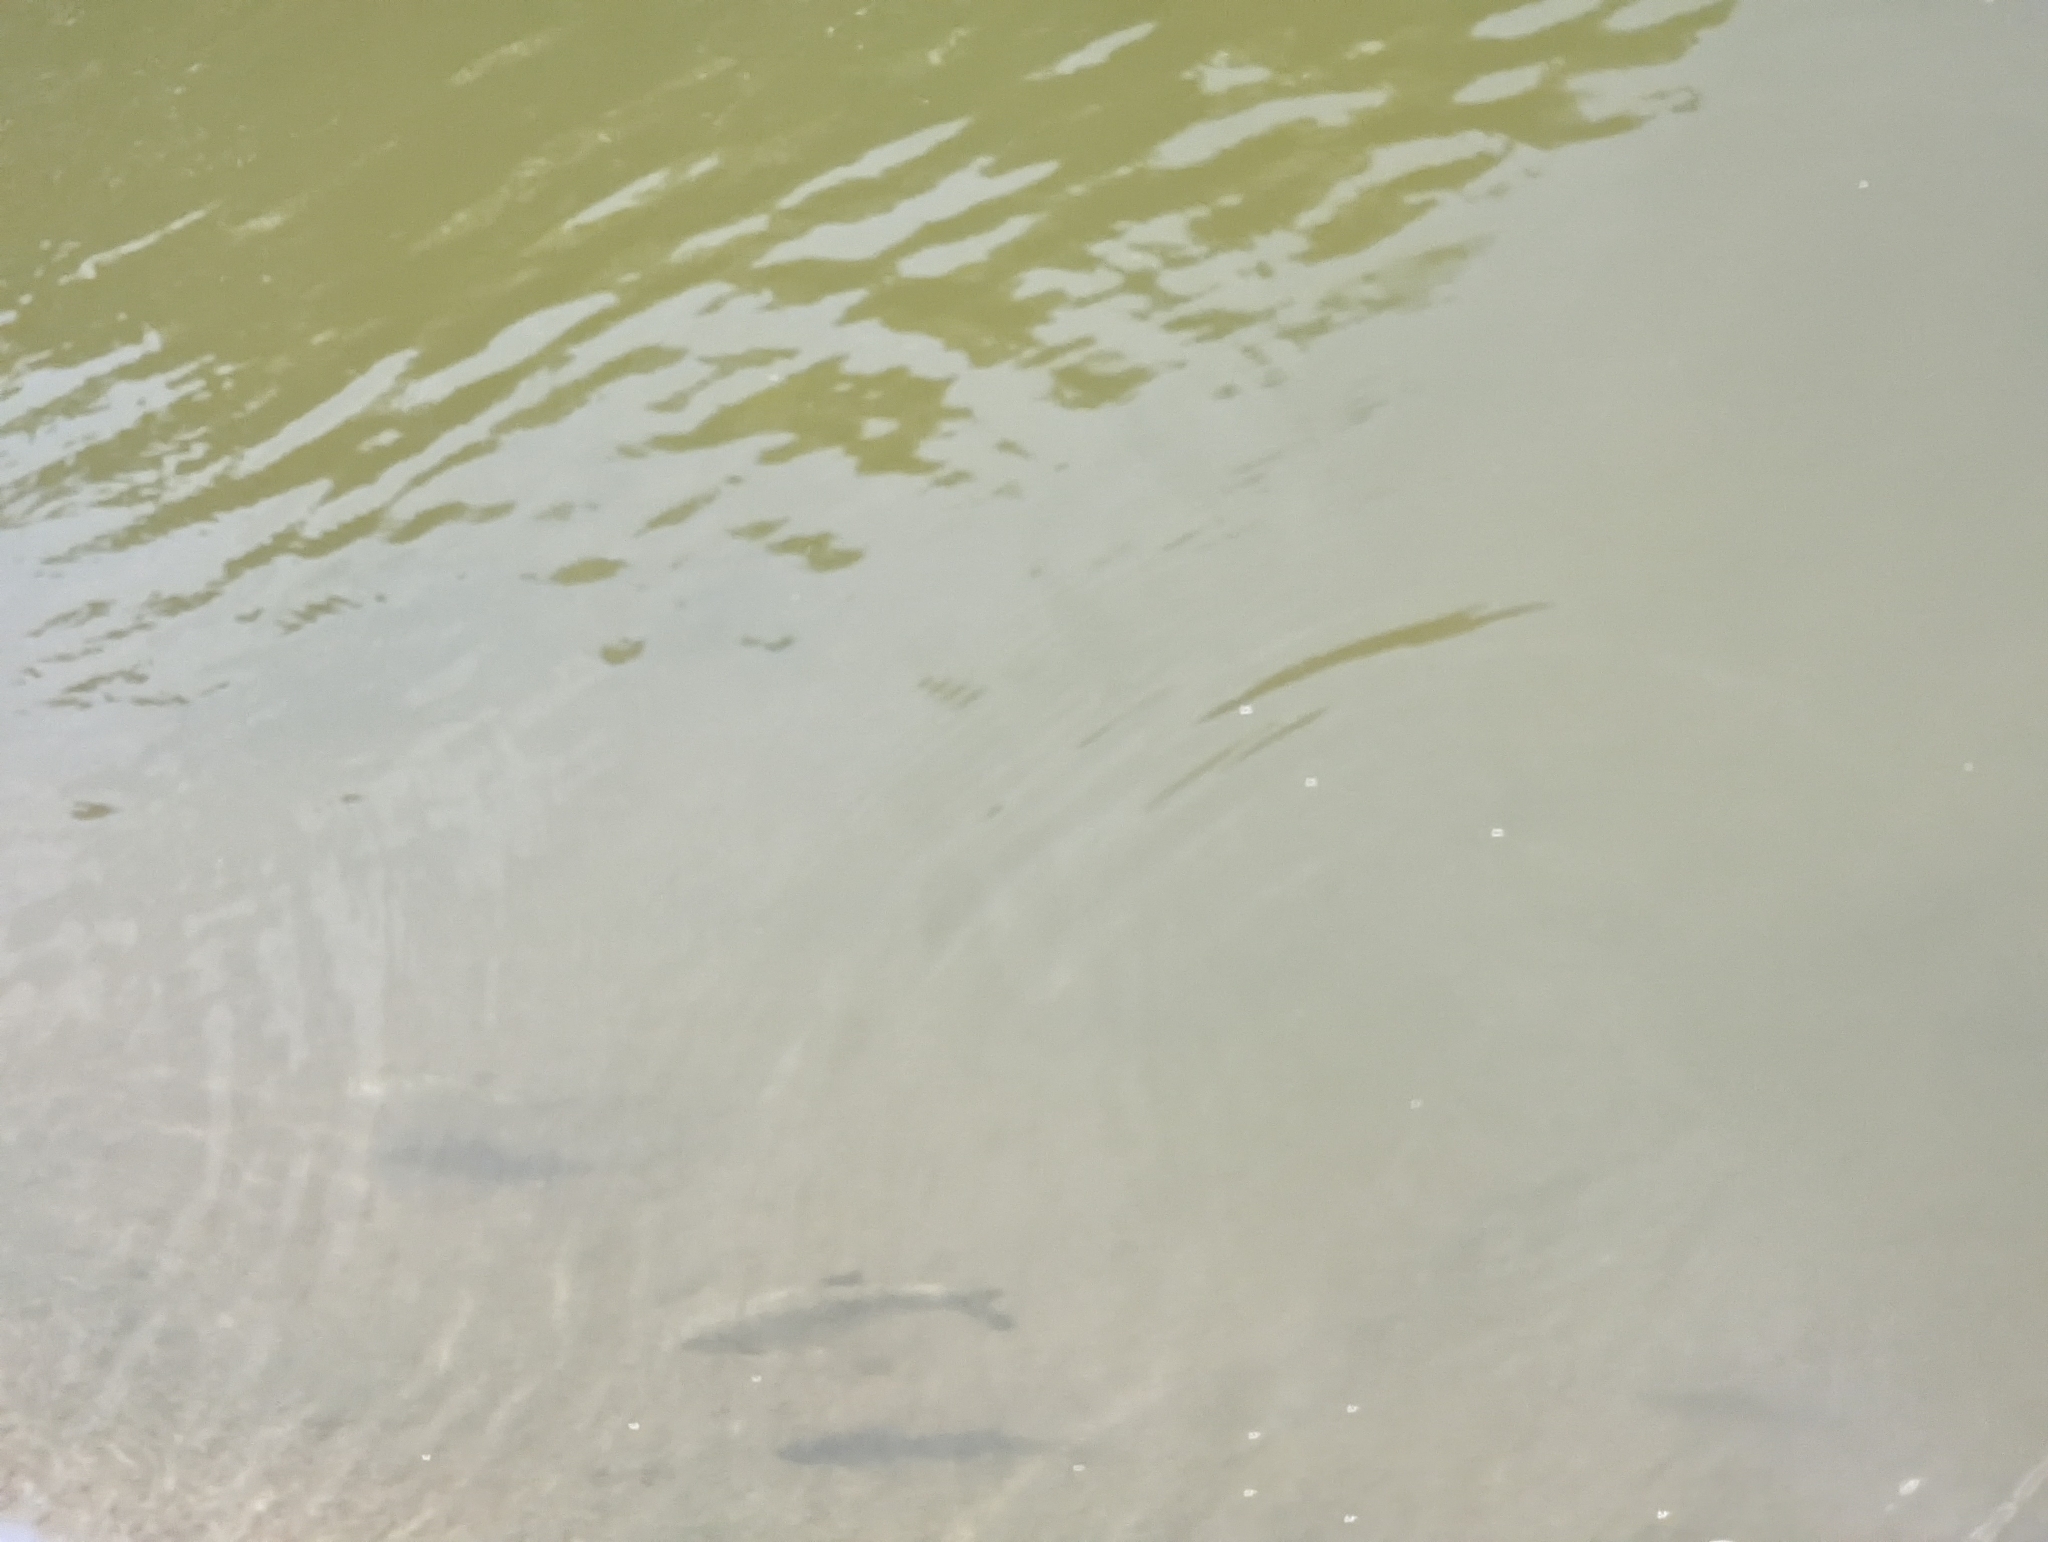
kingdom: Animalia
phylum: Chordata
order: Cypriniformes
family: Cyprinidae
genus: Leuciscus
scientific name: Leuciscus leuciscus
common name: Dace
